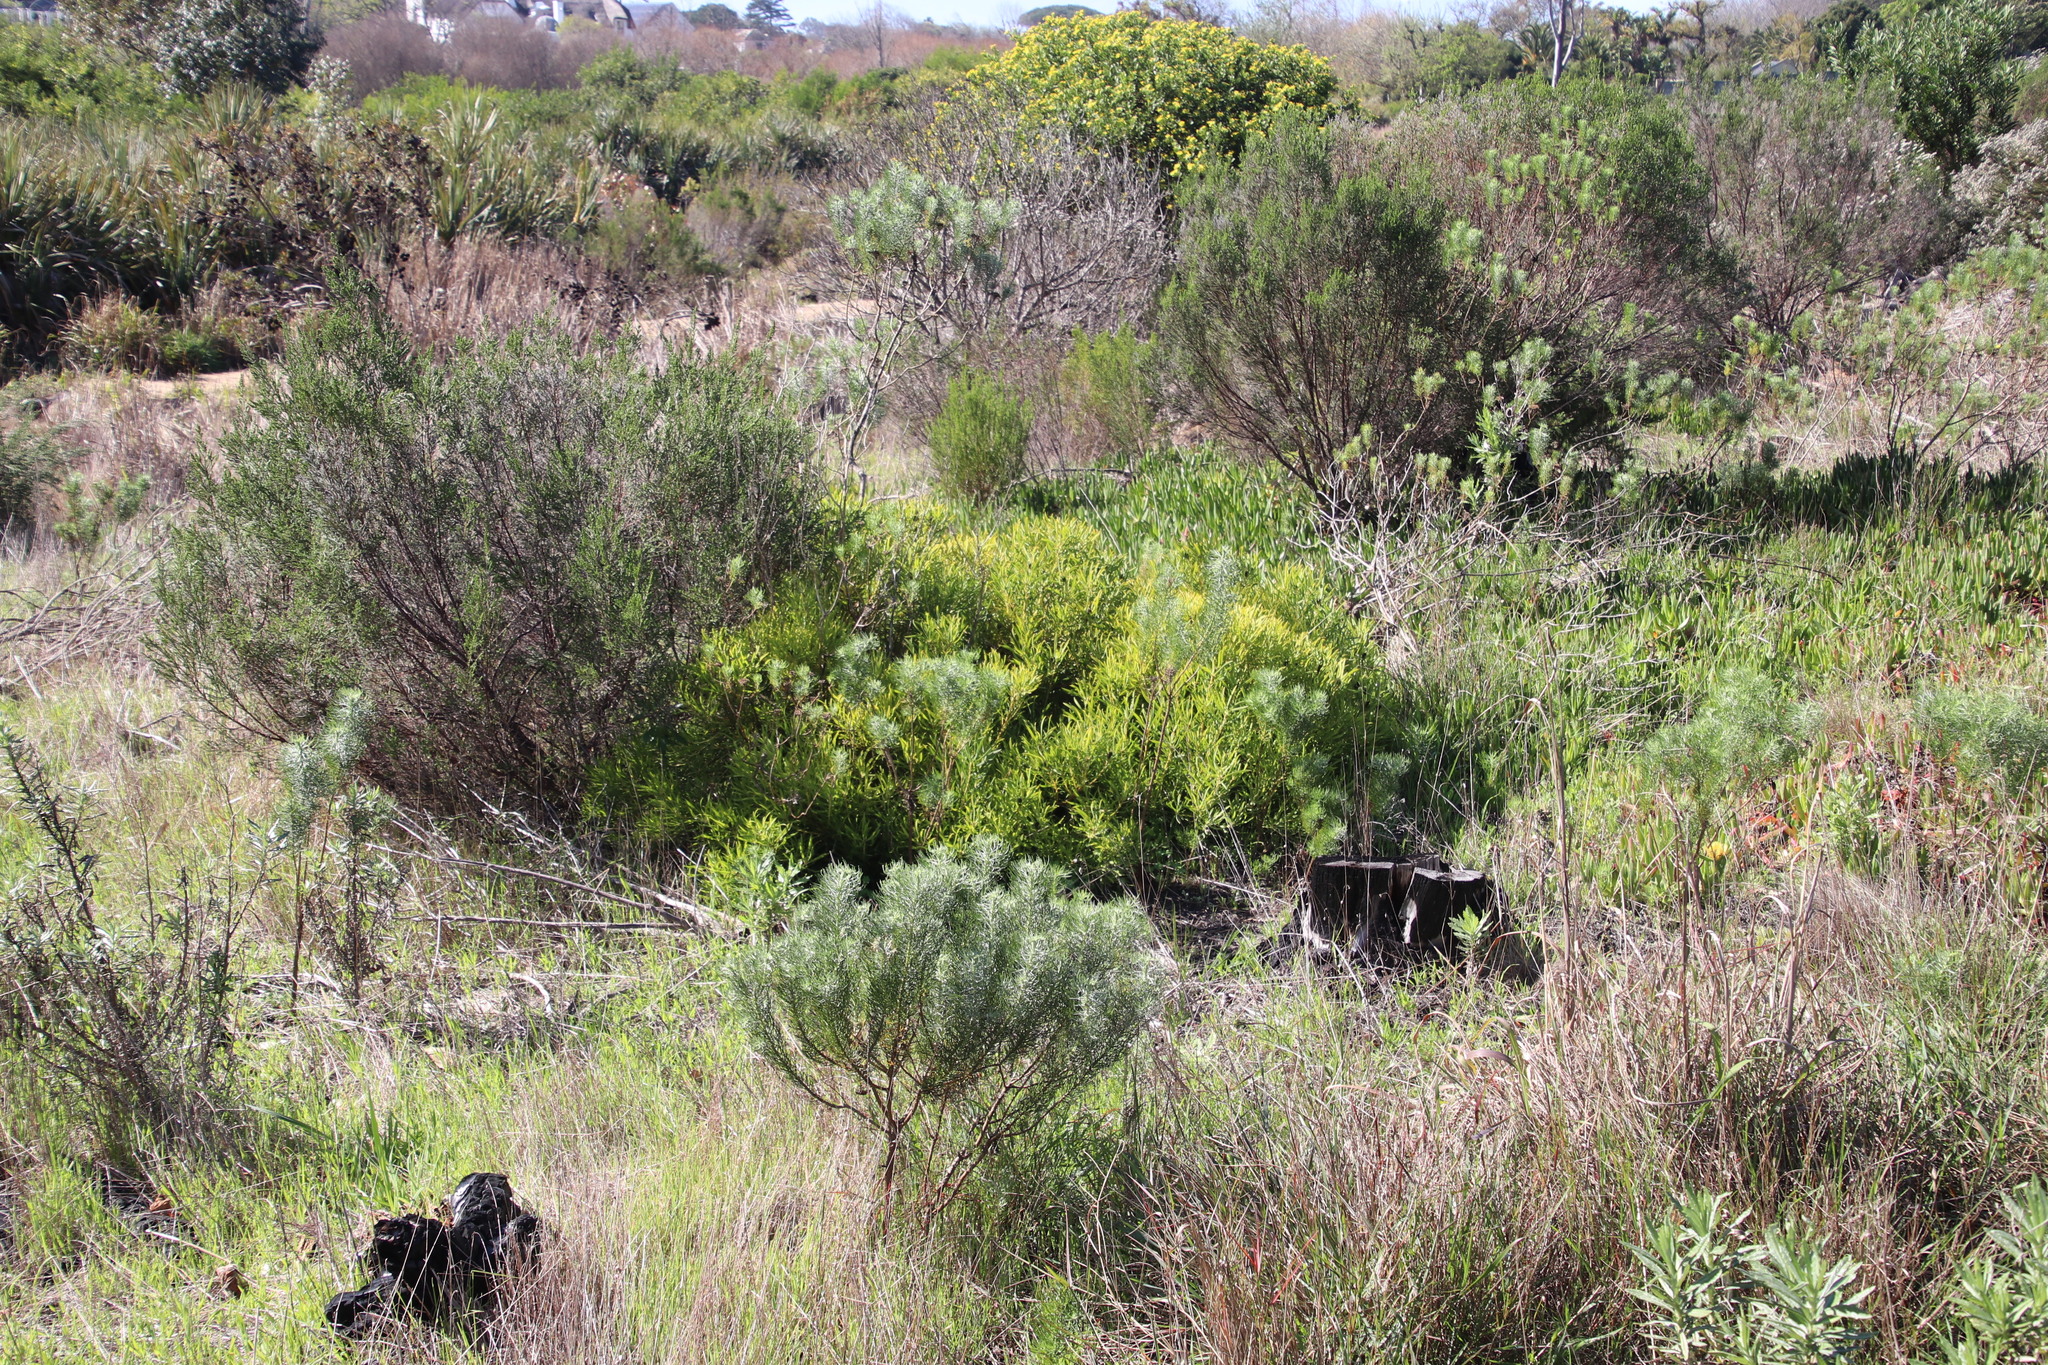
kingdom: Plantae
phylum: Tracheophyta
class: Magnoliopsida
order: Proteales
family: Proteaceae
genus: Leucadendron
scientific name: Leucadendron salignum
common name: Common sunshine conebush
